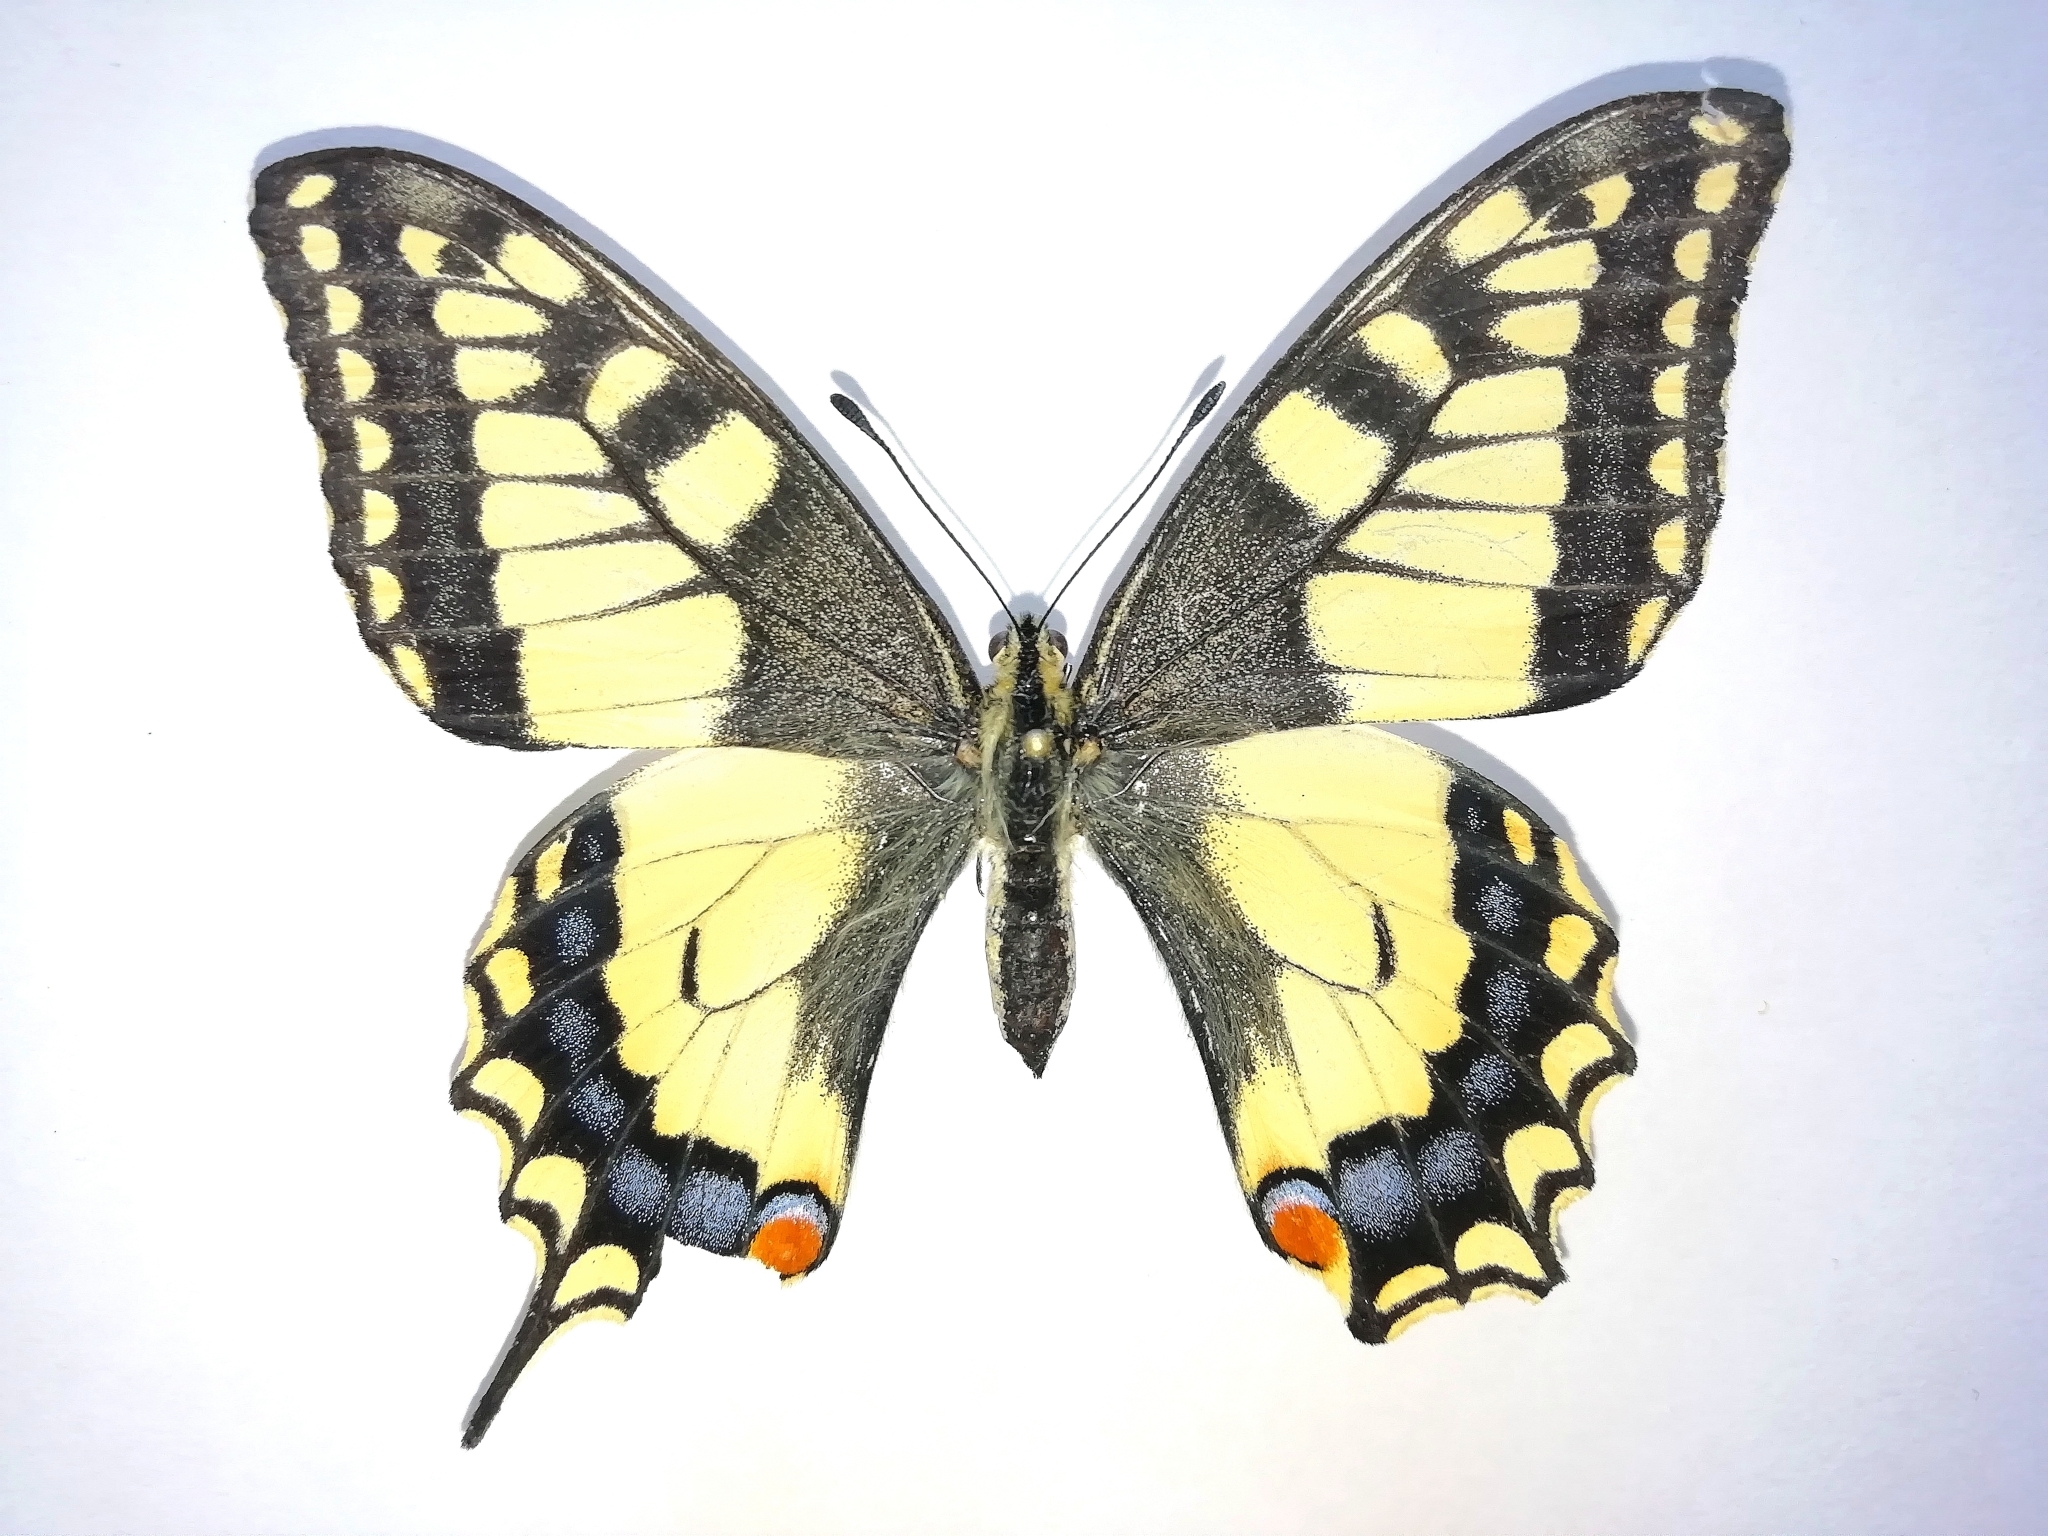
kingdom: Animalia
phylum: Arthropoda
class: Insecta
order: Lepidoptera
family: Papilionidae
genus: Papilio
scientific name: Papilio machaon
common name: Swallowtail
